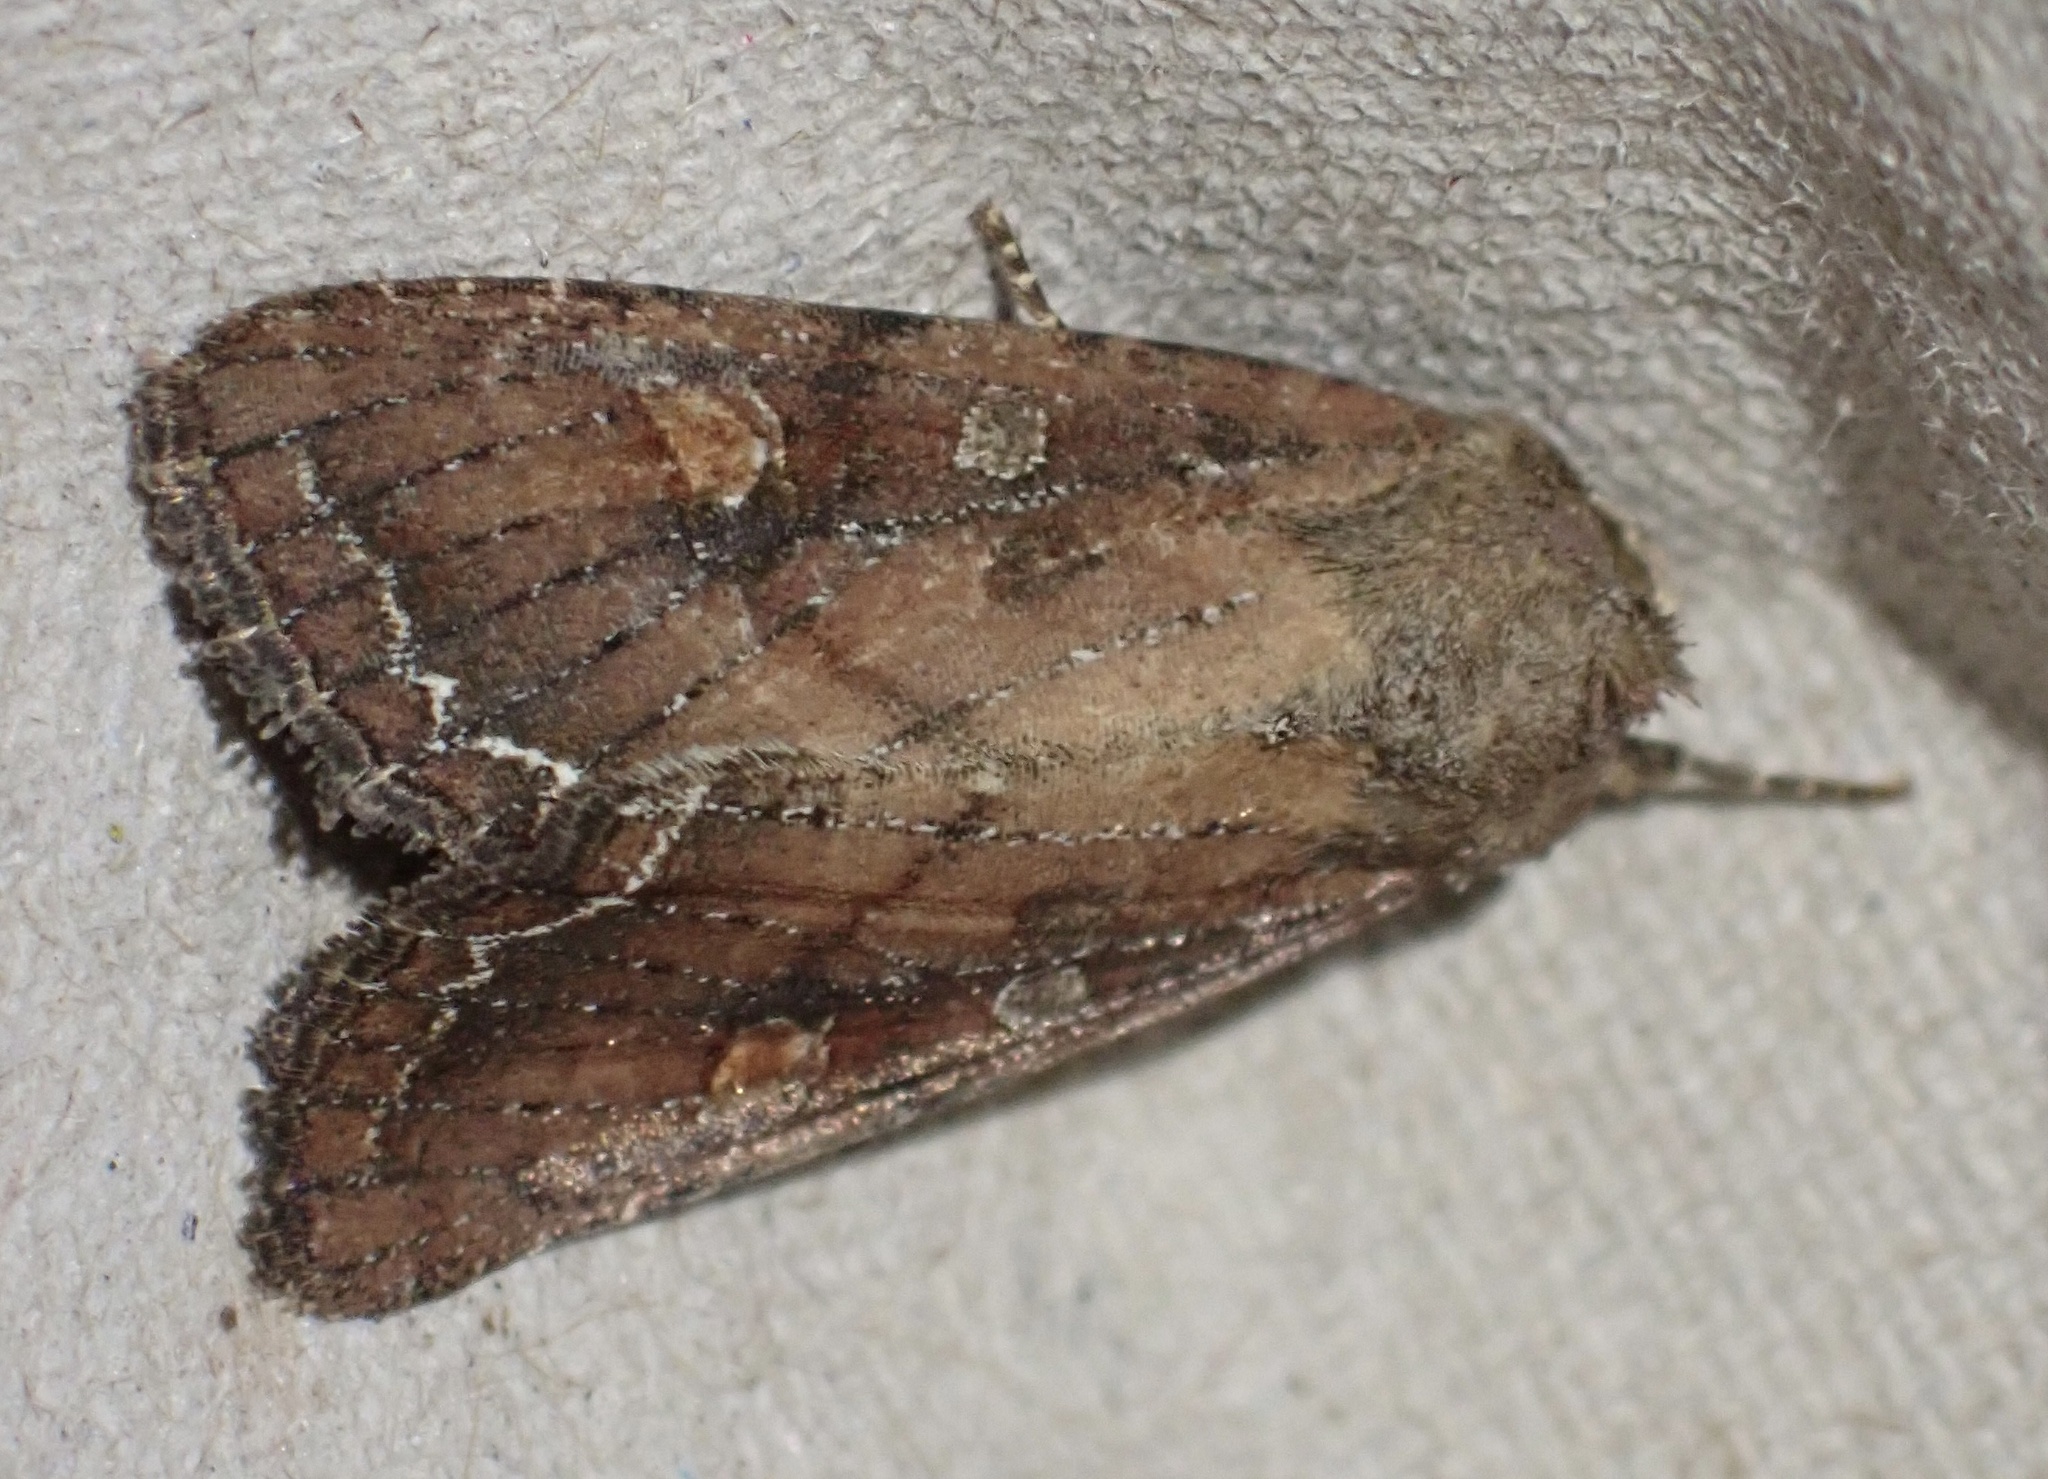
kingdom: Animalia
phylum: Arthropoda
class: Insecta
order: Lepidoptera
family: Noctuidae
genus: Lacanobia
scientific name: Lacanobia oleracea
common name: Bright-line brown-eye
